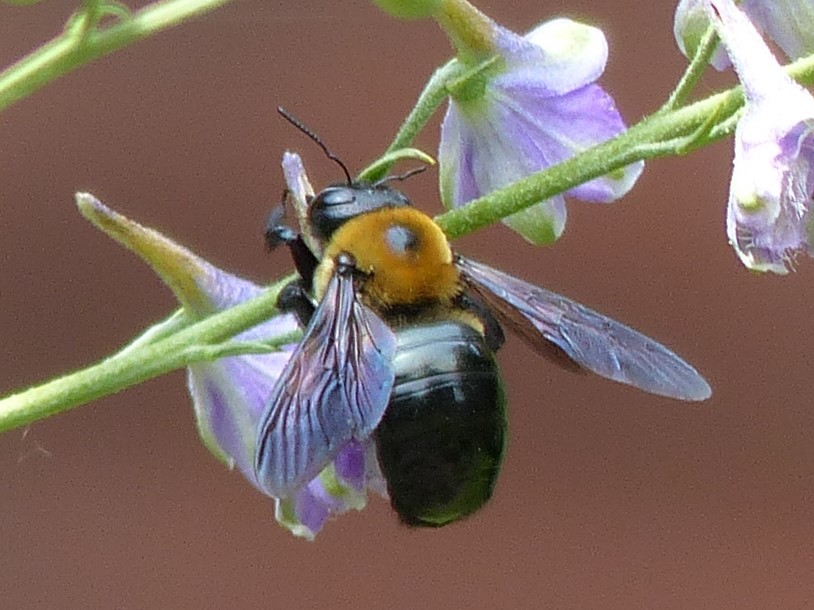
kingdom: Animalia
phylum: Arthropoda
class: Insecta
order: Hymenoptera
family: Apidae
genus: Xylocopa
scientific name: Xylocopa virginica
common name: Carpenter bee
